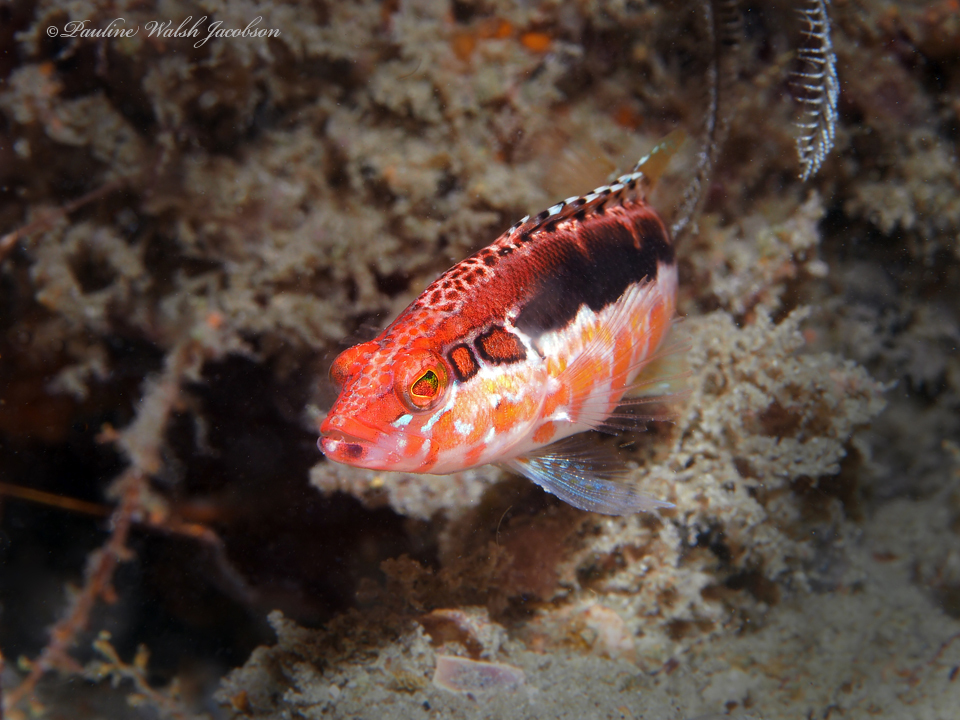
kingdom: Animalia
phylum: Chordata
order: Perciformes
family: Serranidae
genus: Serranus
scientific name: Serranus annularis
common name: Orangeback bass
